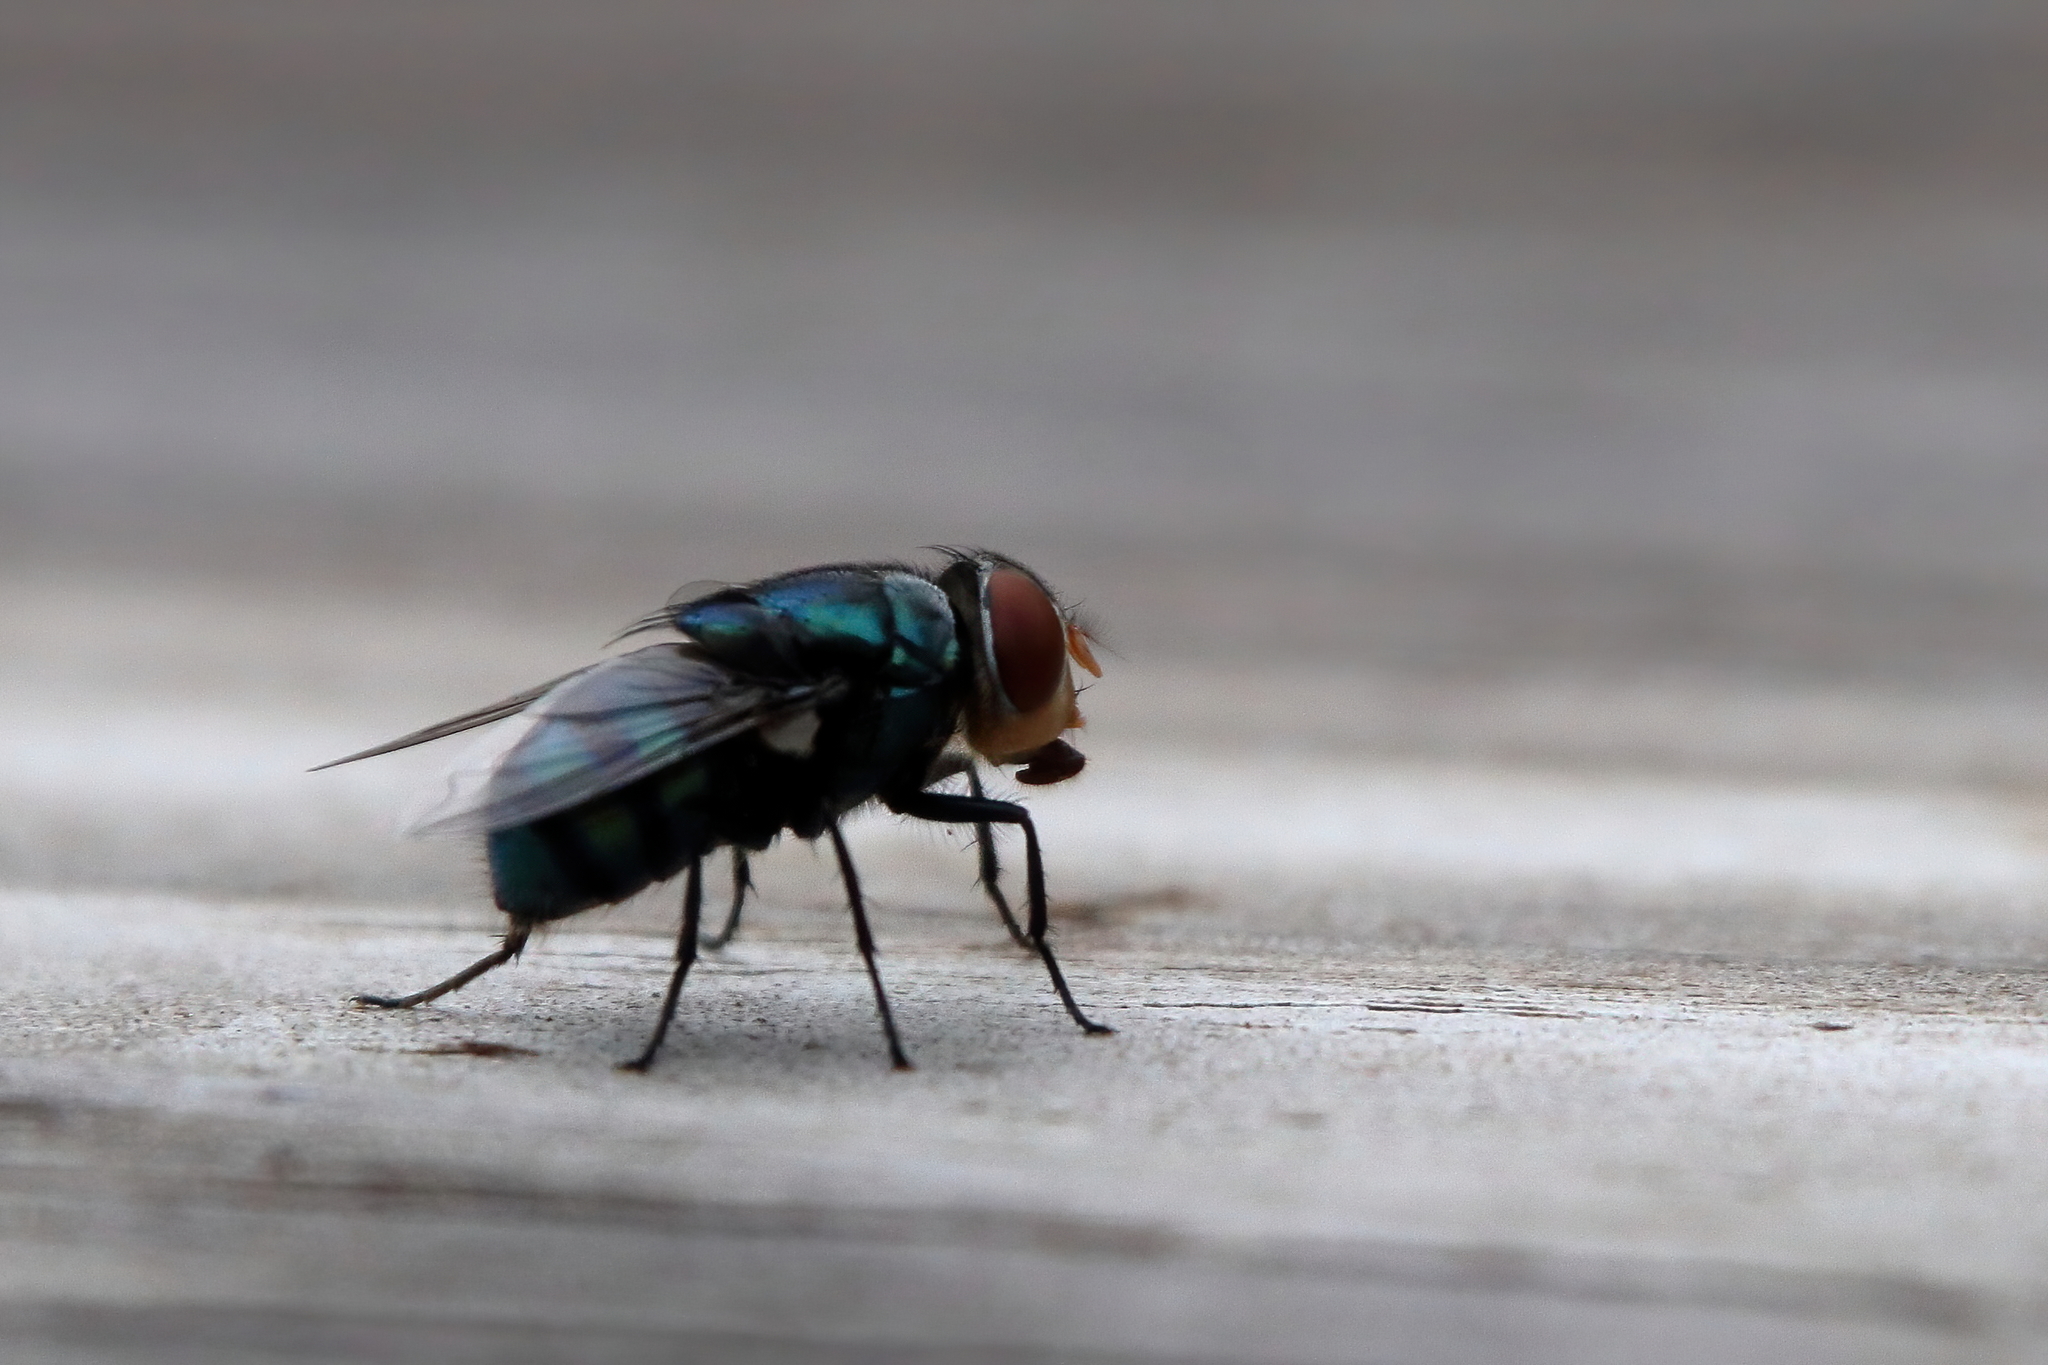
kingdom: Animalia
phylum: Arthropoda
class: Insecta
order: Diptera
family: Calliphoridae
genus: Chrysomya
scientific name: Chrysomya megacephala
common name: Blow fly
